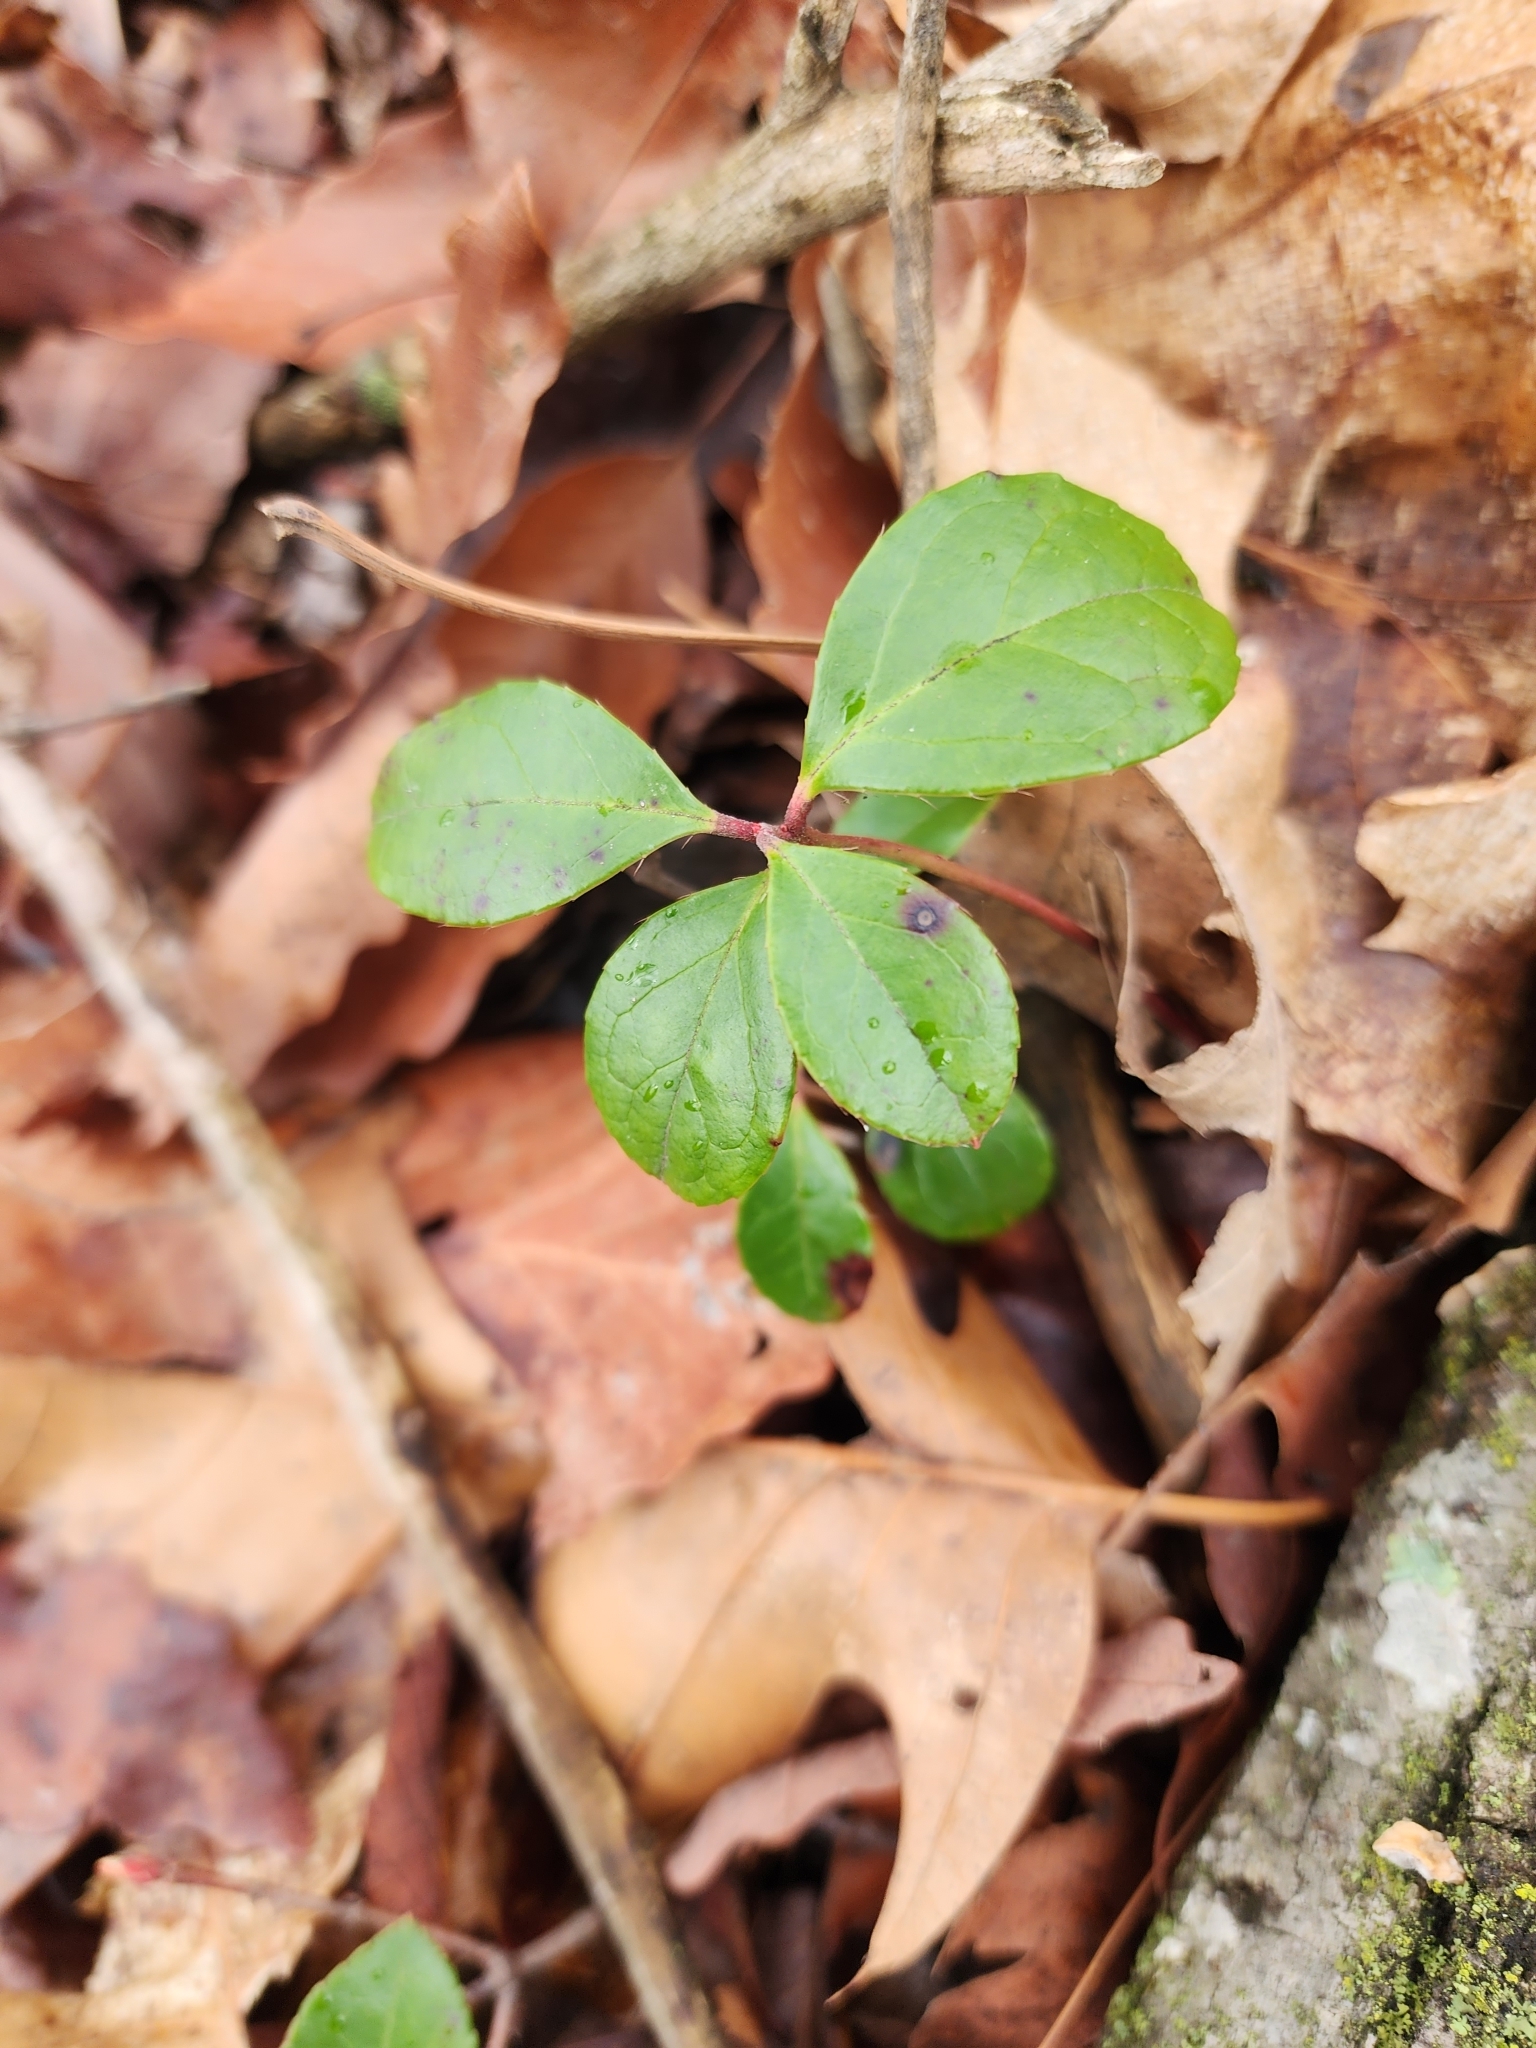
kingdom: Plantae
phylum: Tracheophyta
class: Magnoliopsida
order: Ericales
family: Ericaceae
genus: Gaultheria
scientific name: Gaultheria procumbens
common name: Checkerberry
